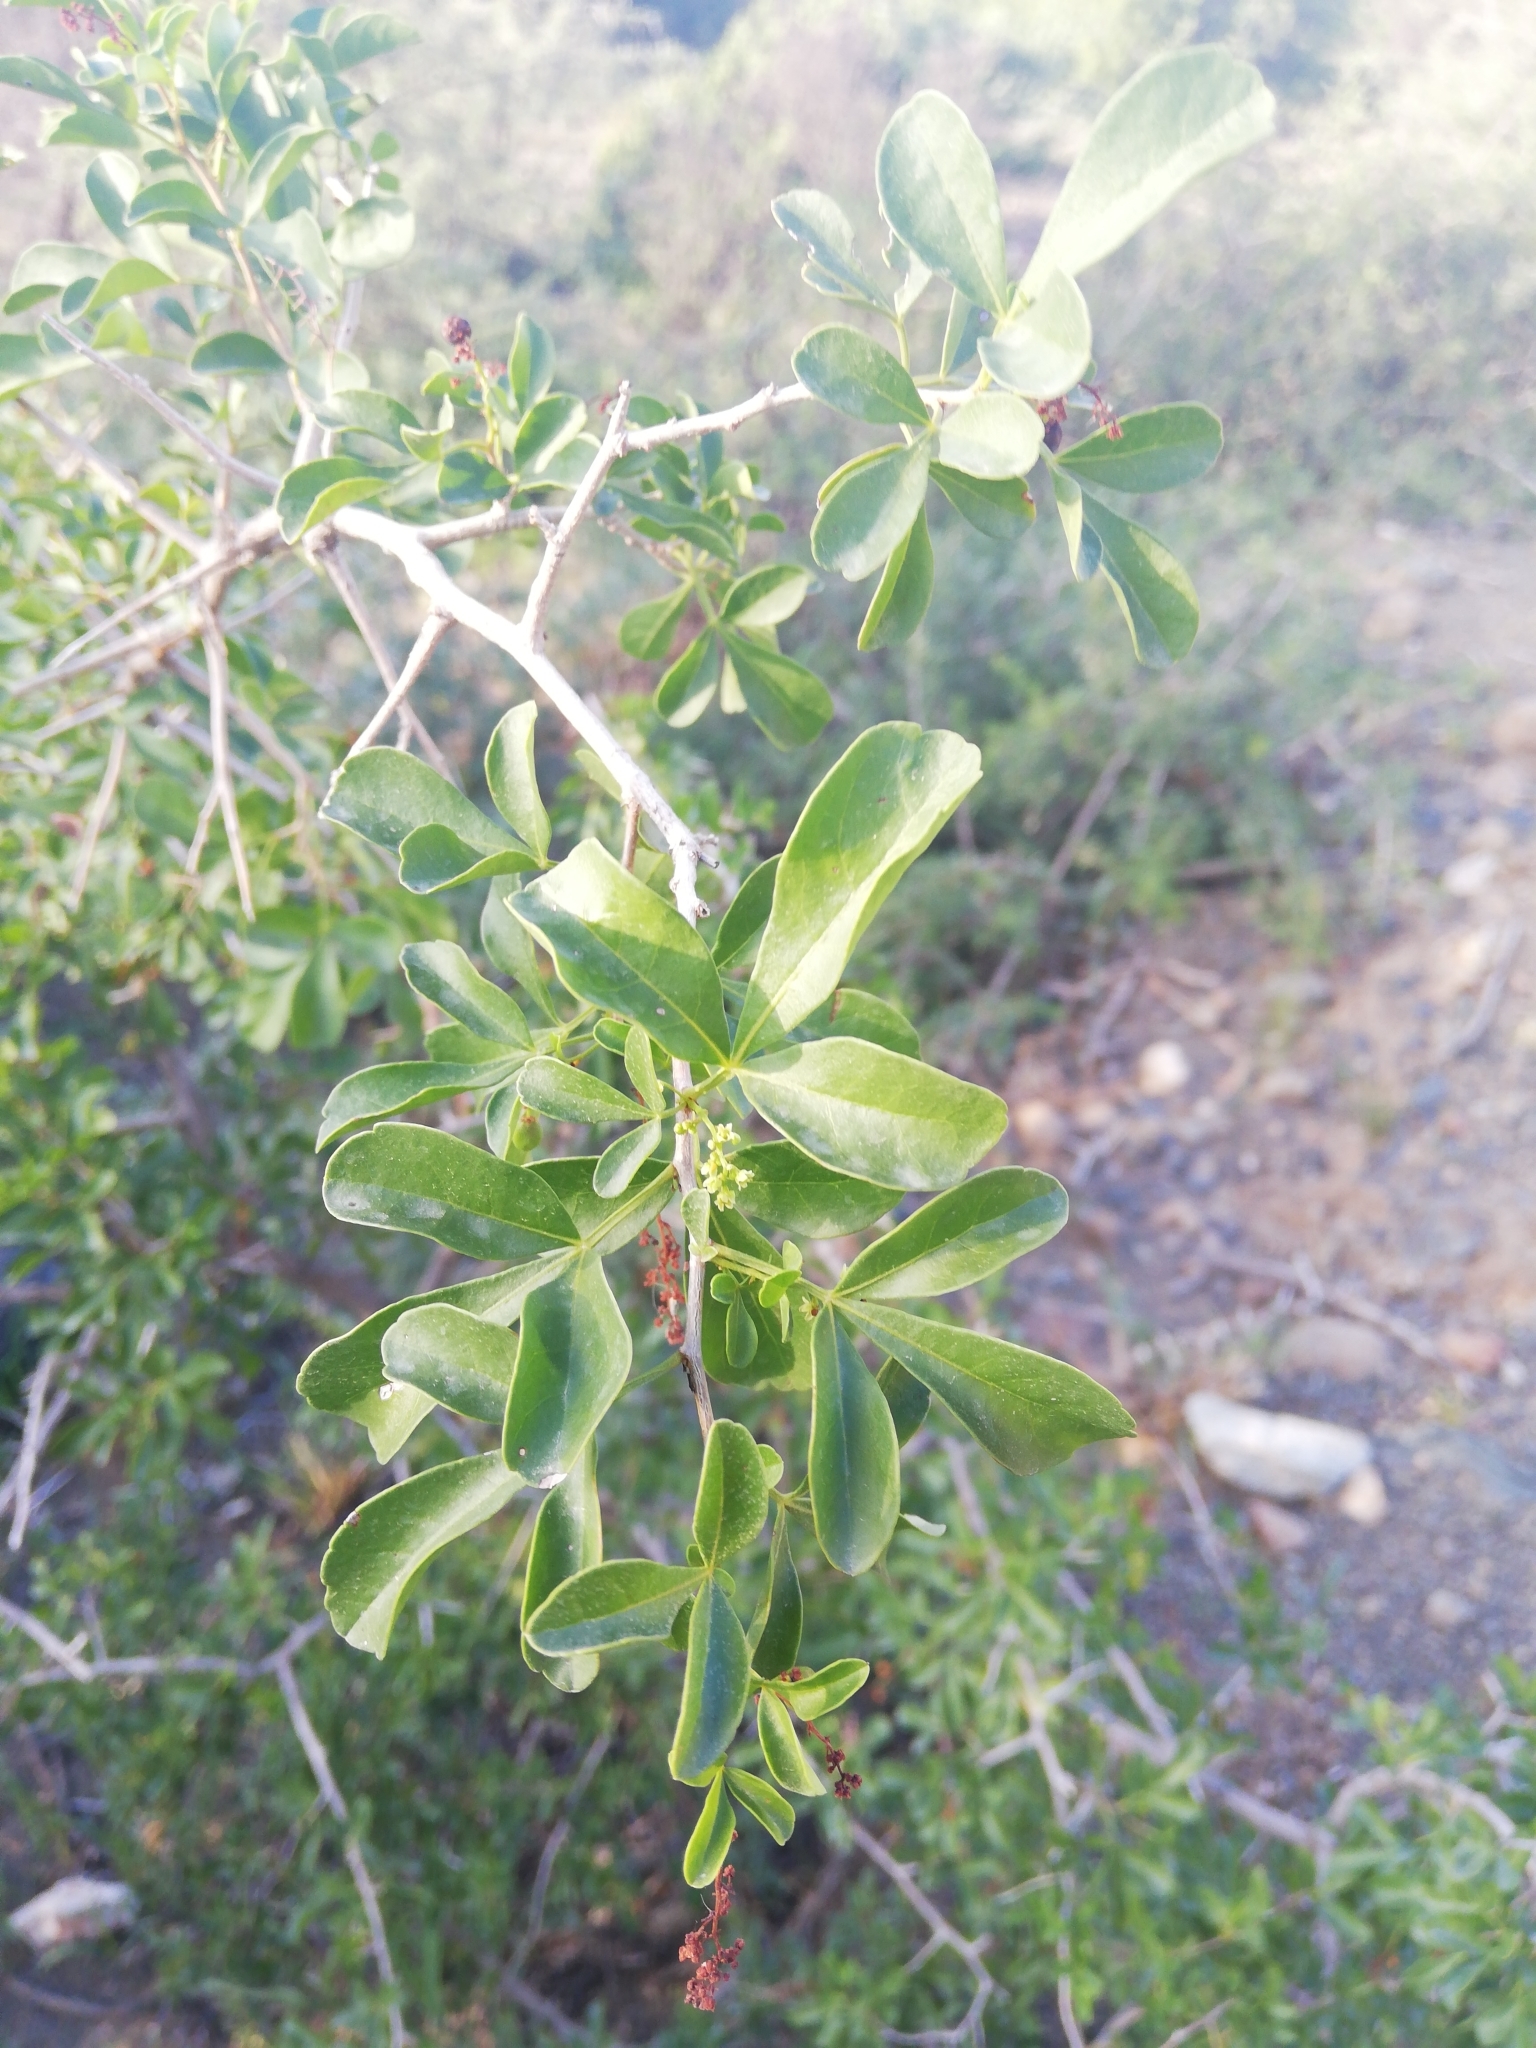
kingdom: Plantae
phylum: Tracheophyta
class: Magnoliopsida
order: Sapindales
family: Anacardiaceae
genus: Searsia
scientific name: Searsia refracta
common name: Thorny crow-berry
